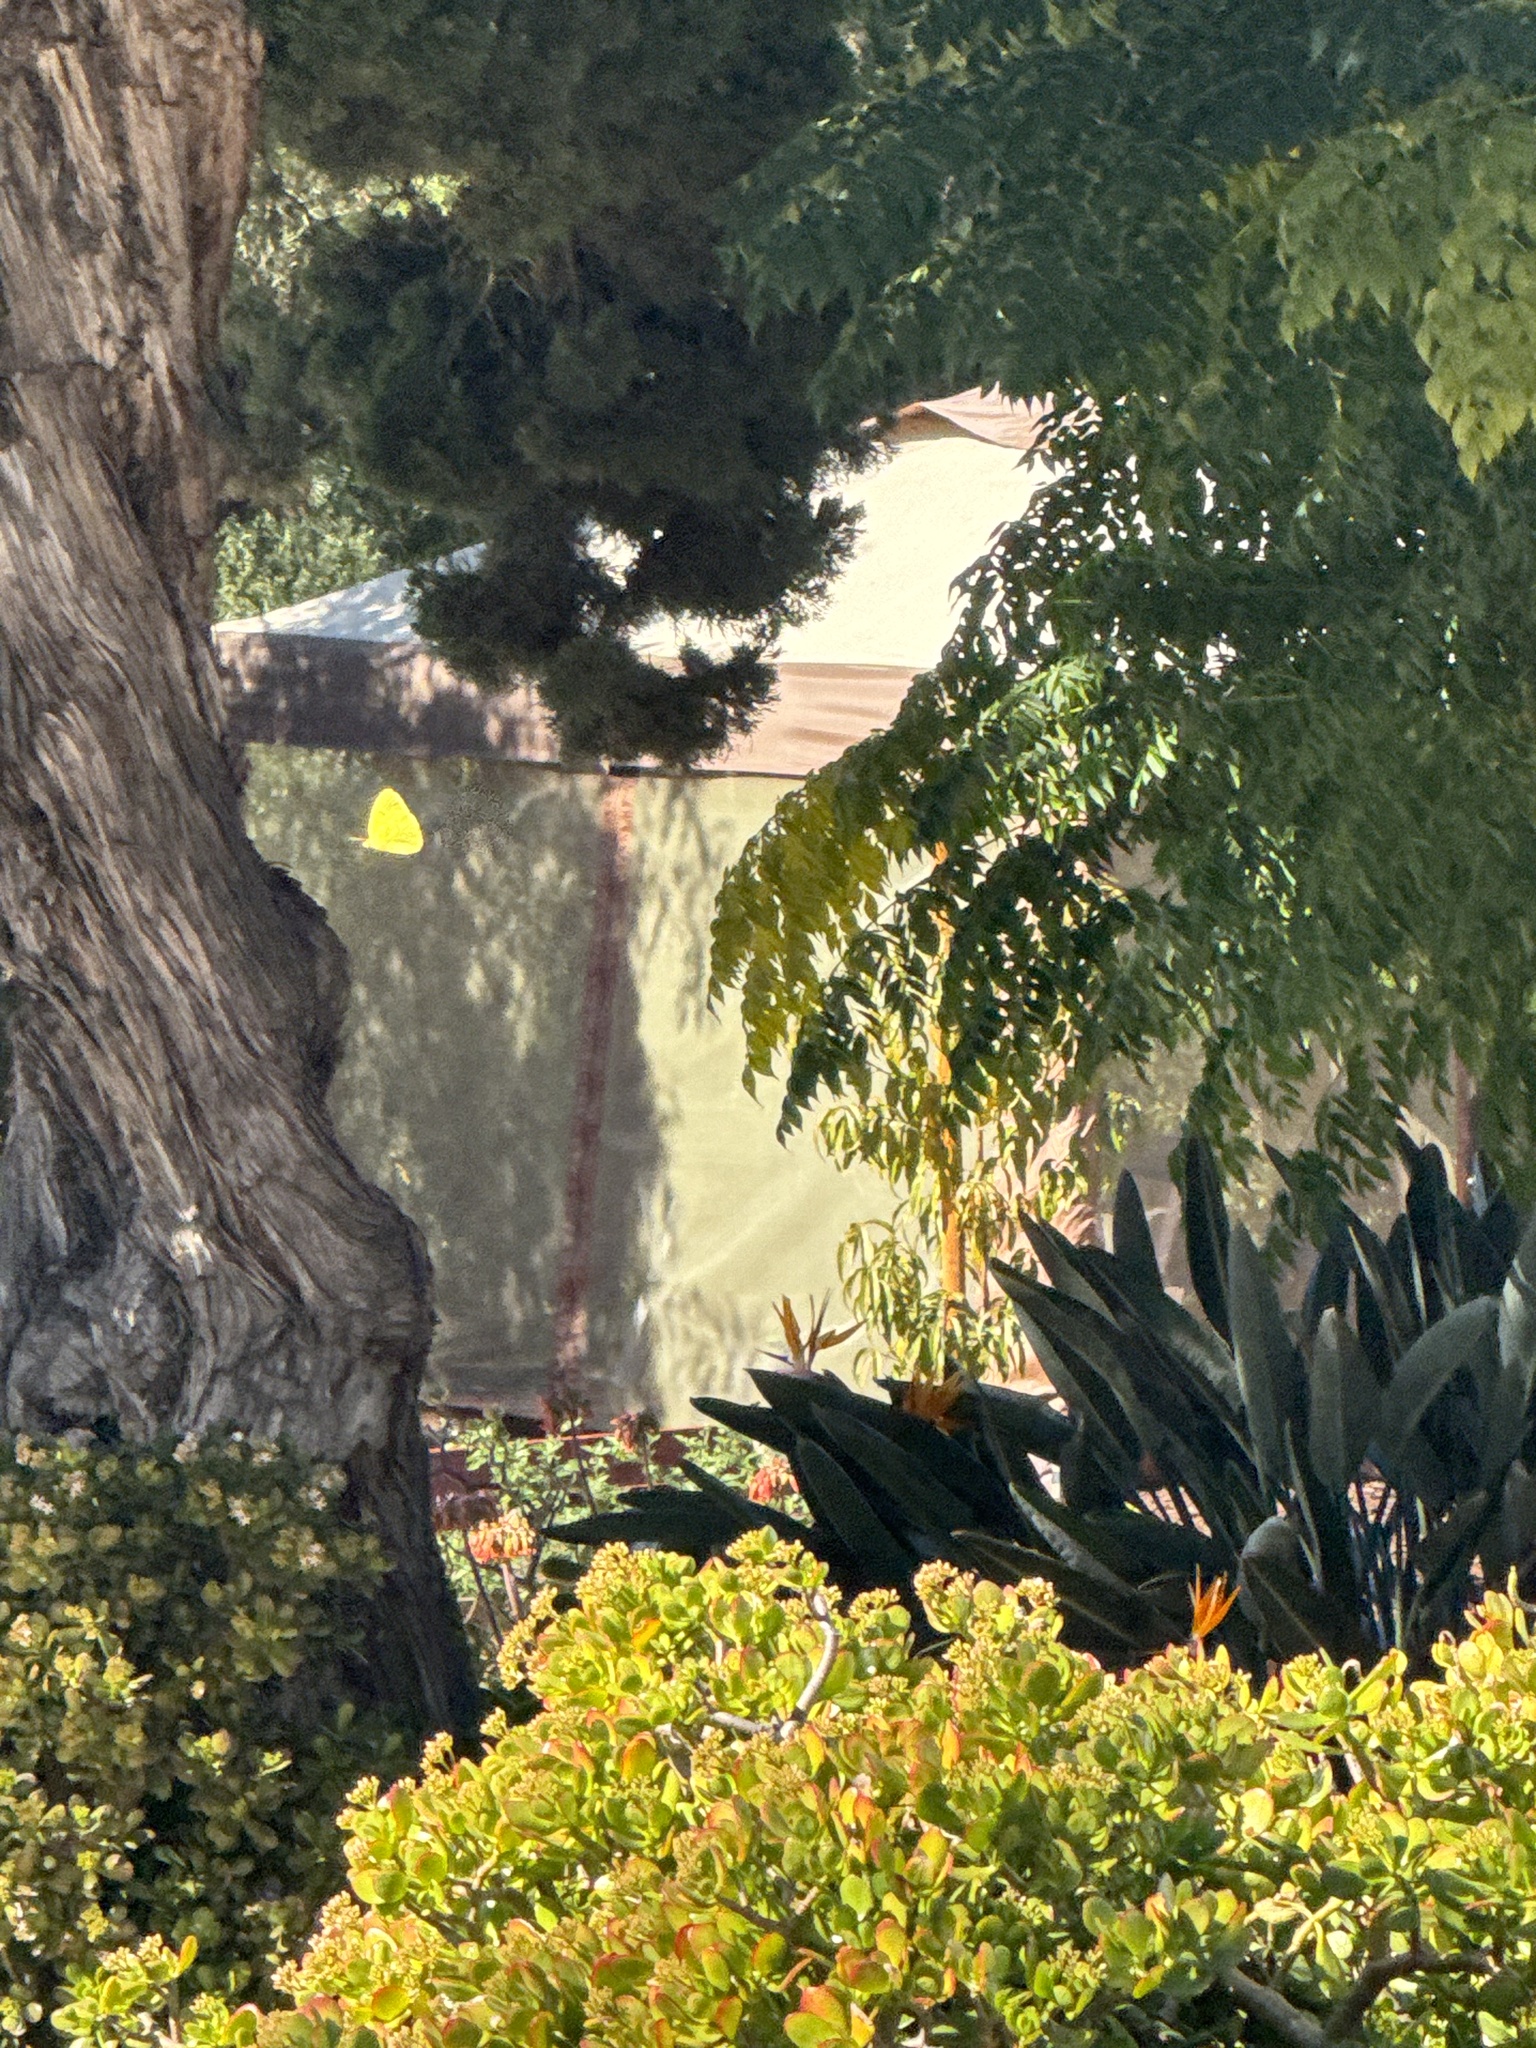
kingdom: Animalia
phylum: Arthropoda
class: Insecta
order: Lepidoptera
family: Pieridae
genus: Phoebis
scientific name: Phoebis sennae
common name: Cloudless sulphur
